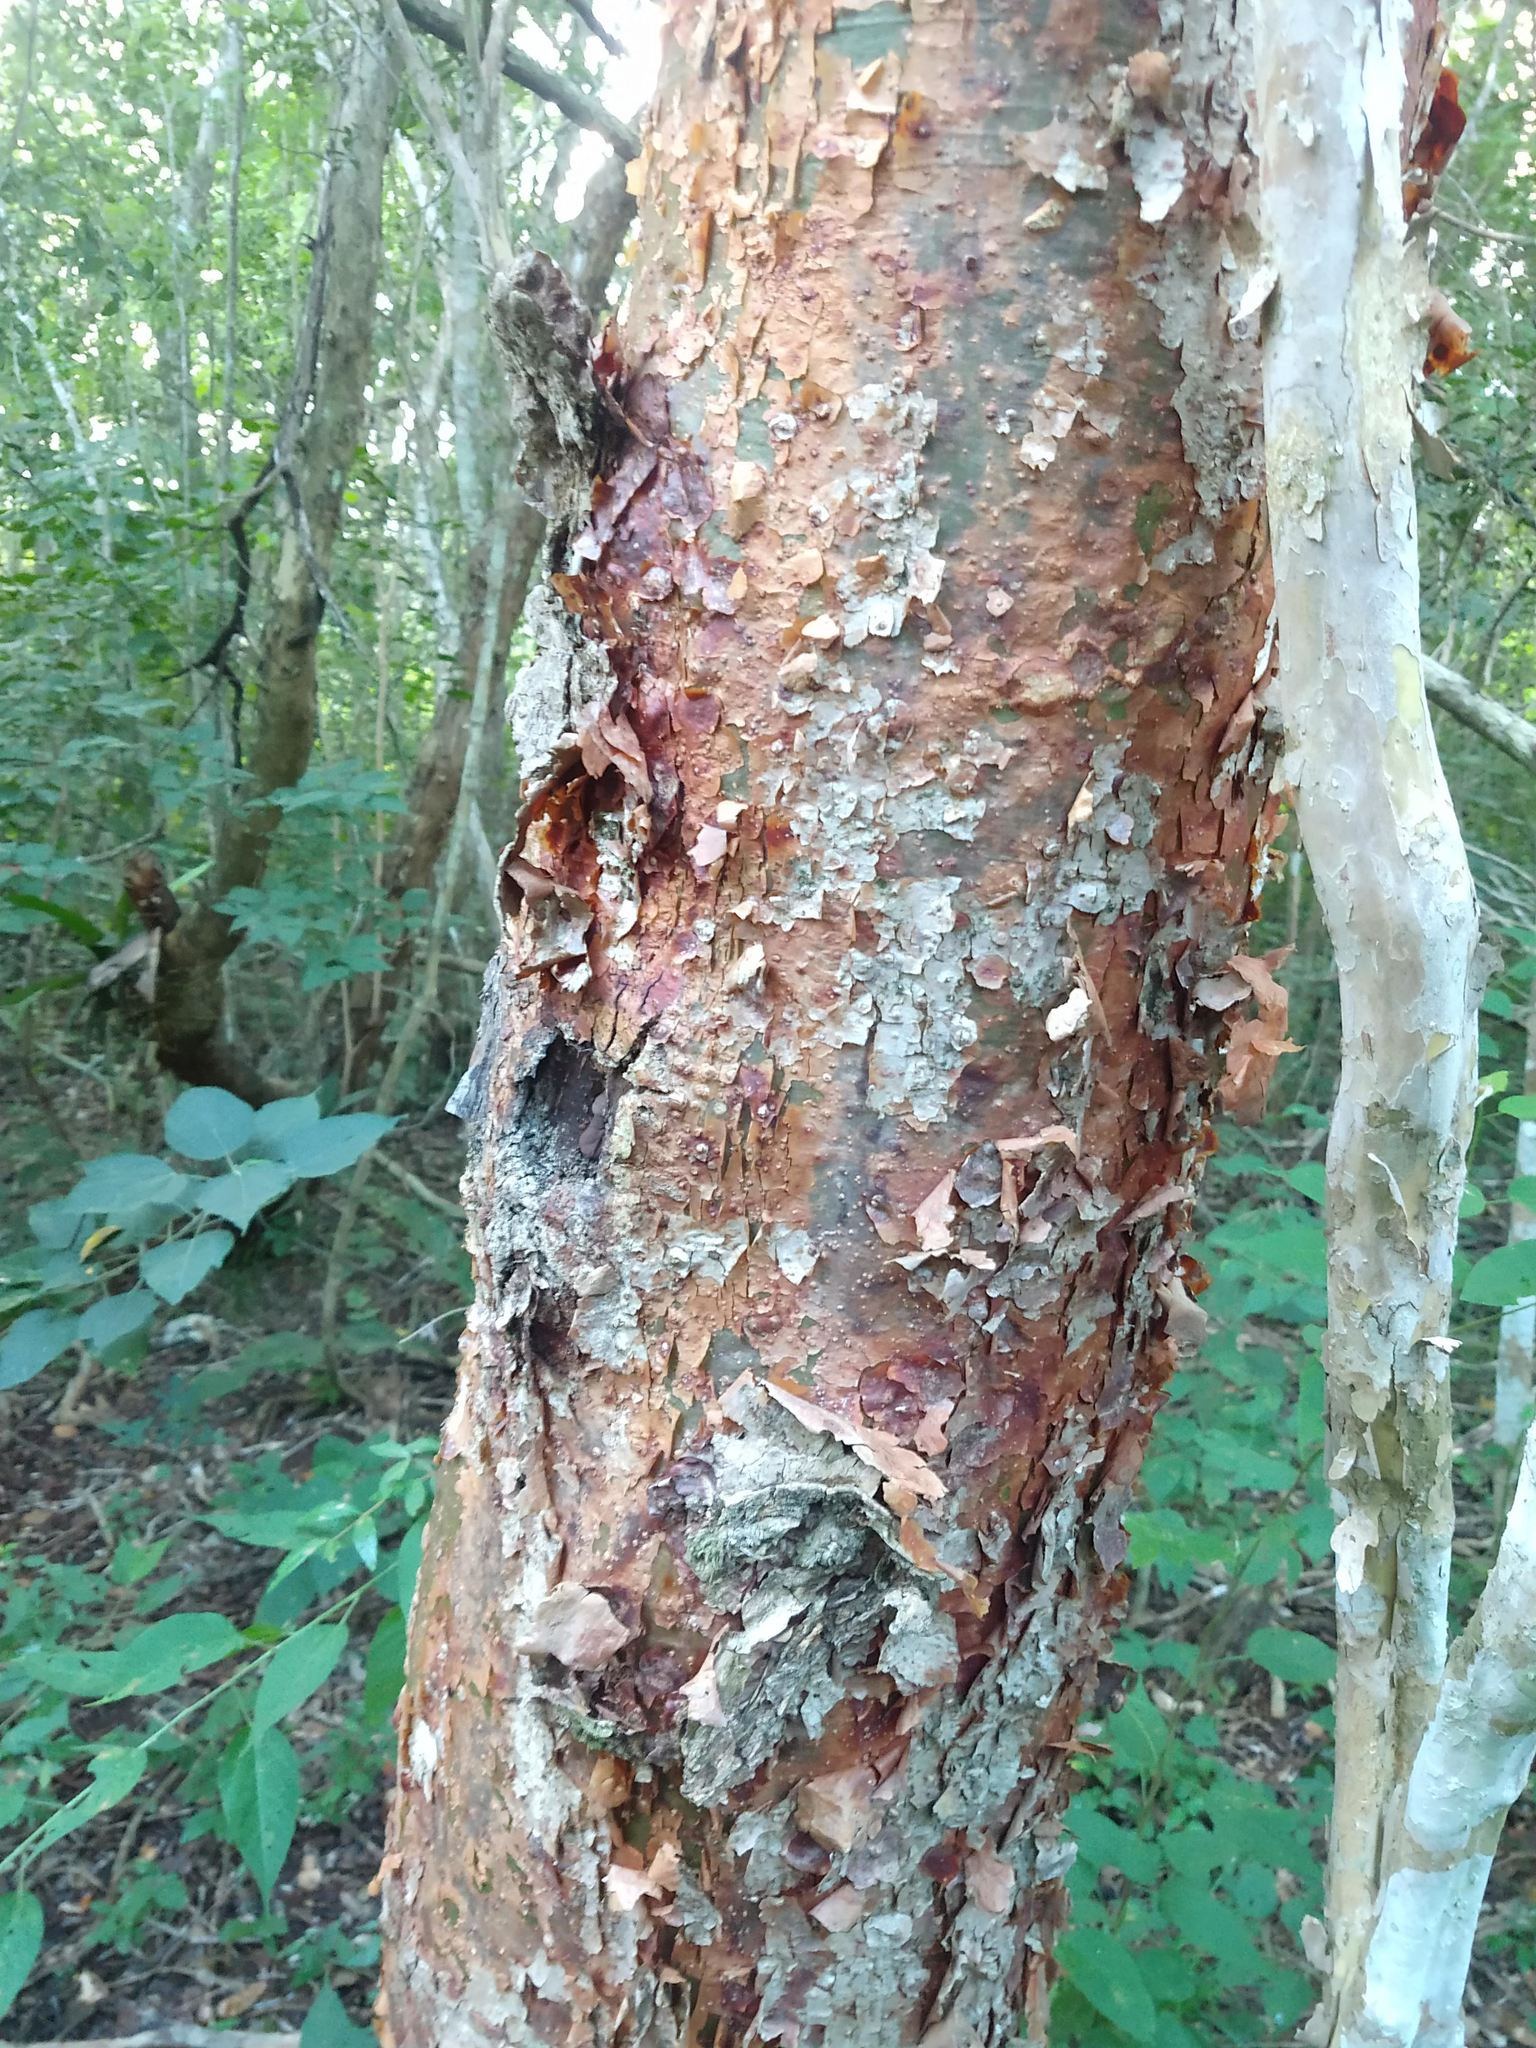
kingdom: Plantae
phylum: Tracheophyta
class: Magnoliopsida
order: Sapindales
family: Burseraceae
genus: Bursera
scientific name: Bursera simaruba
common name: Turpentine tree
